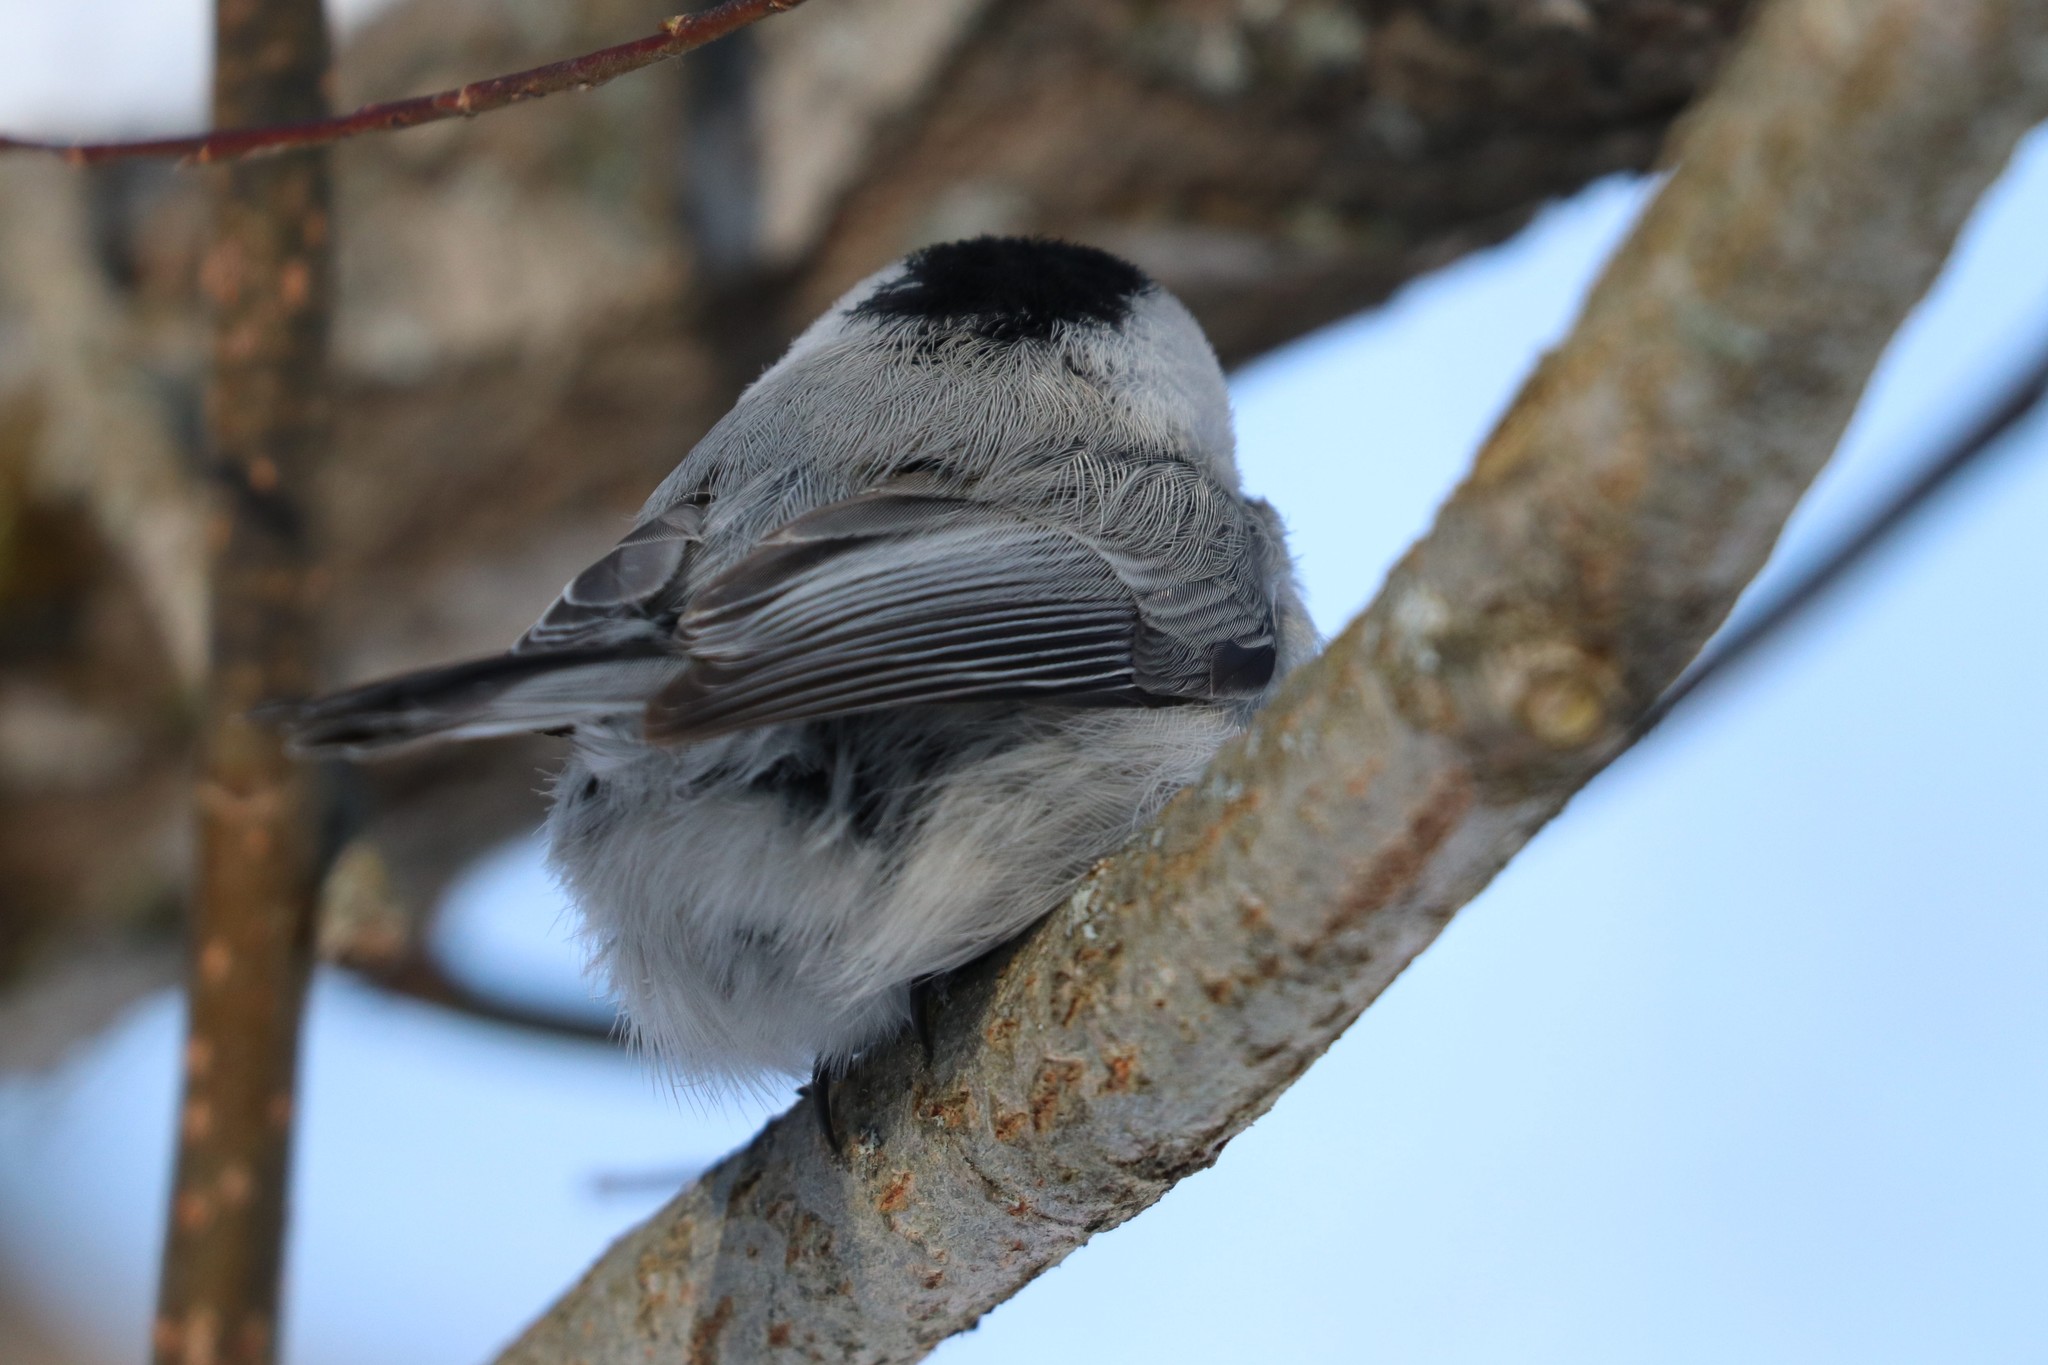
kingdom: Animalia
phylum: Chordata
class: Aves
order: Passeriformes
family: Paridae
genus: Poecile
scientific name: Poecile montanus
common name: Willow tit
